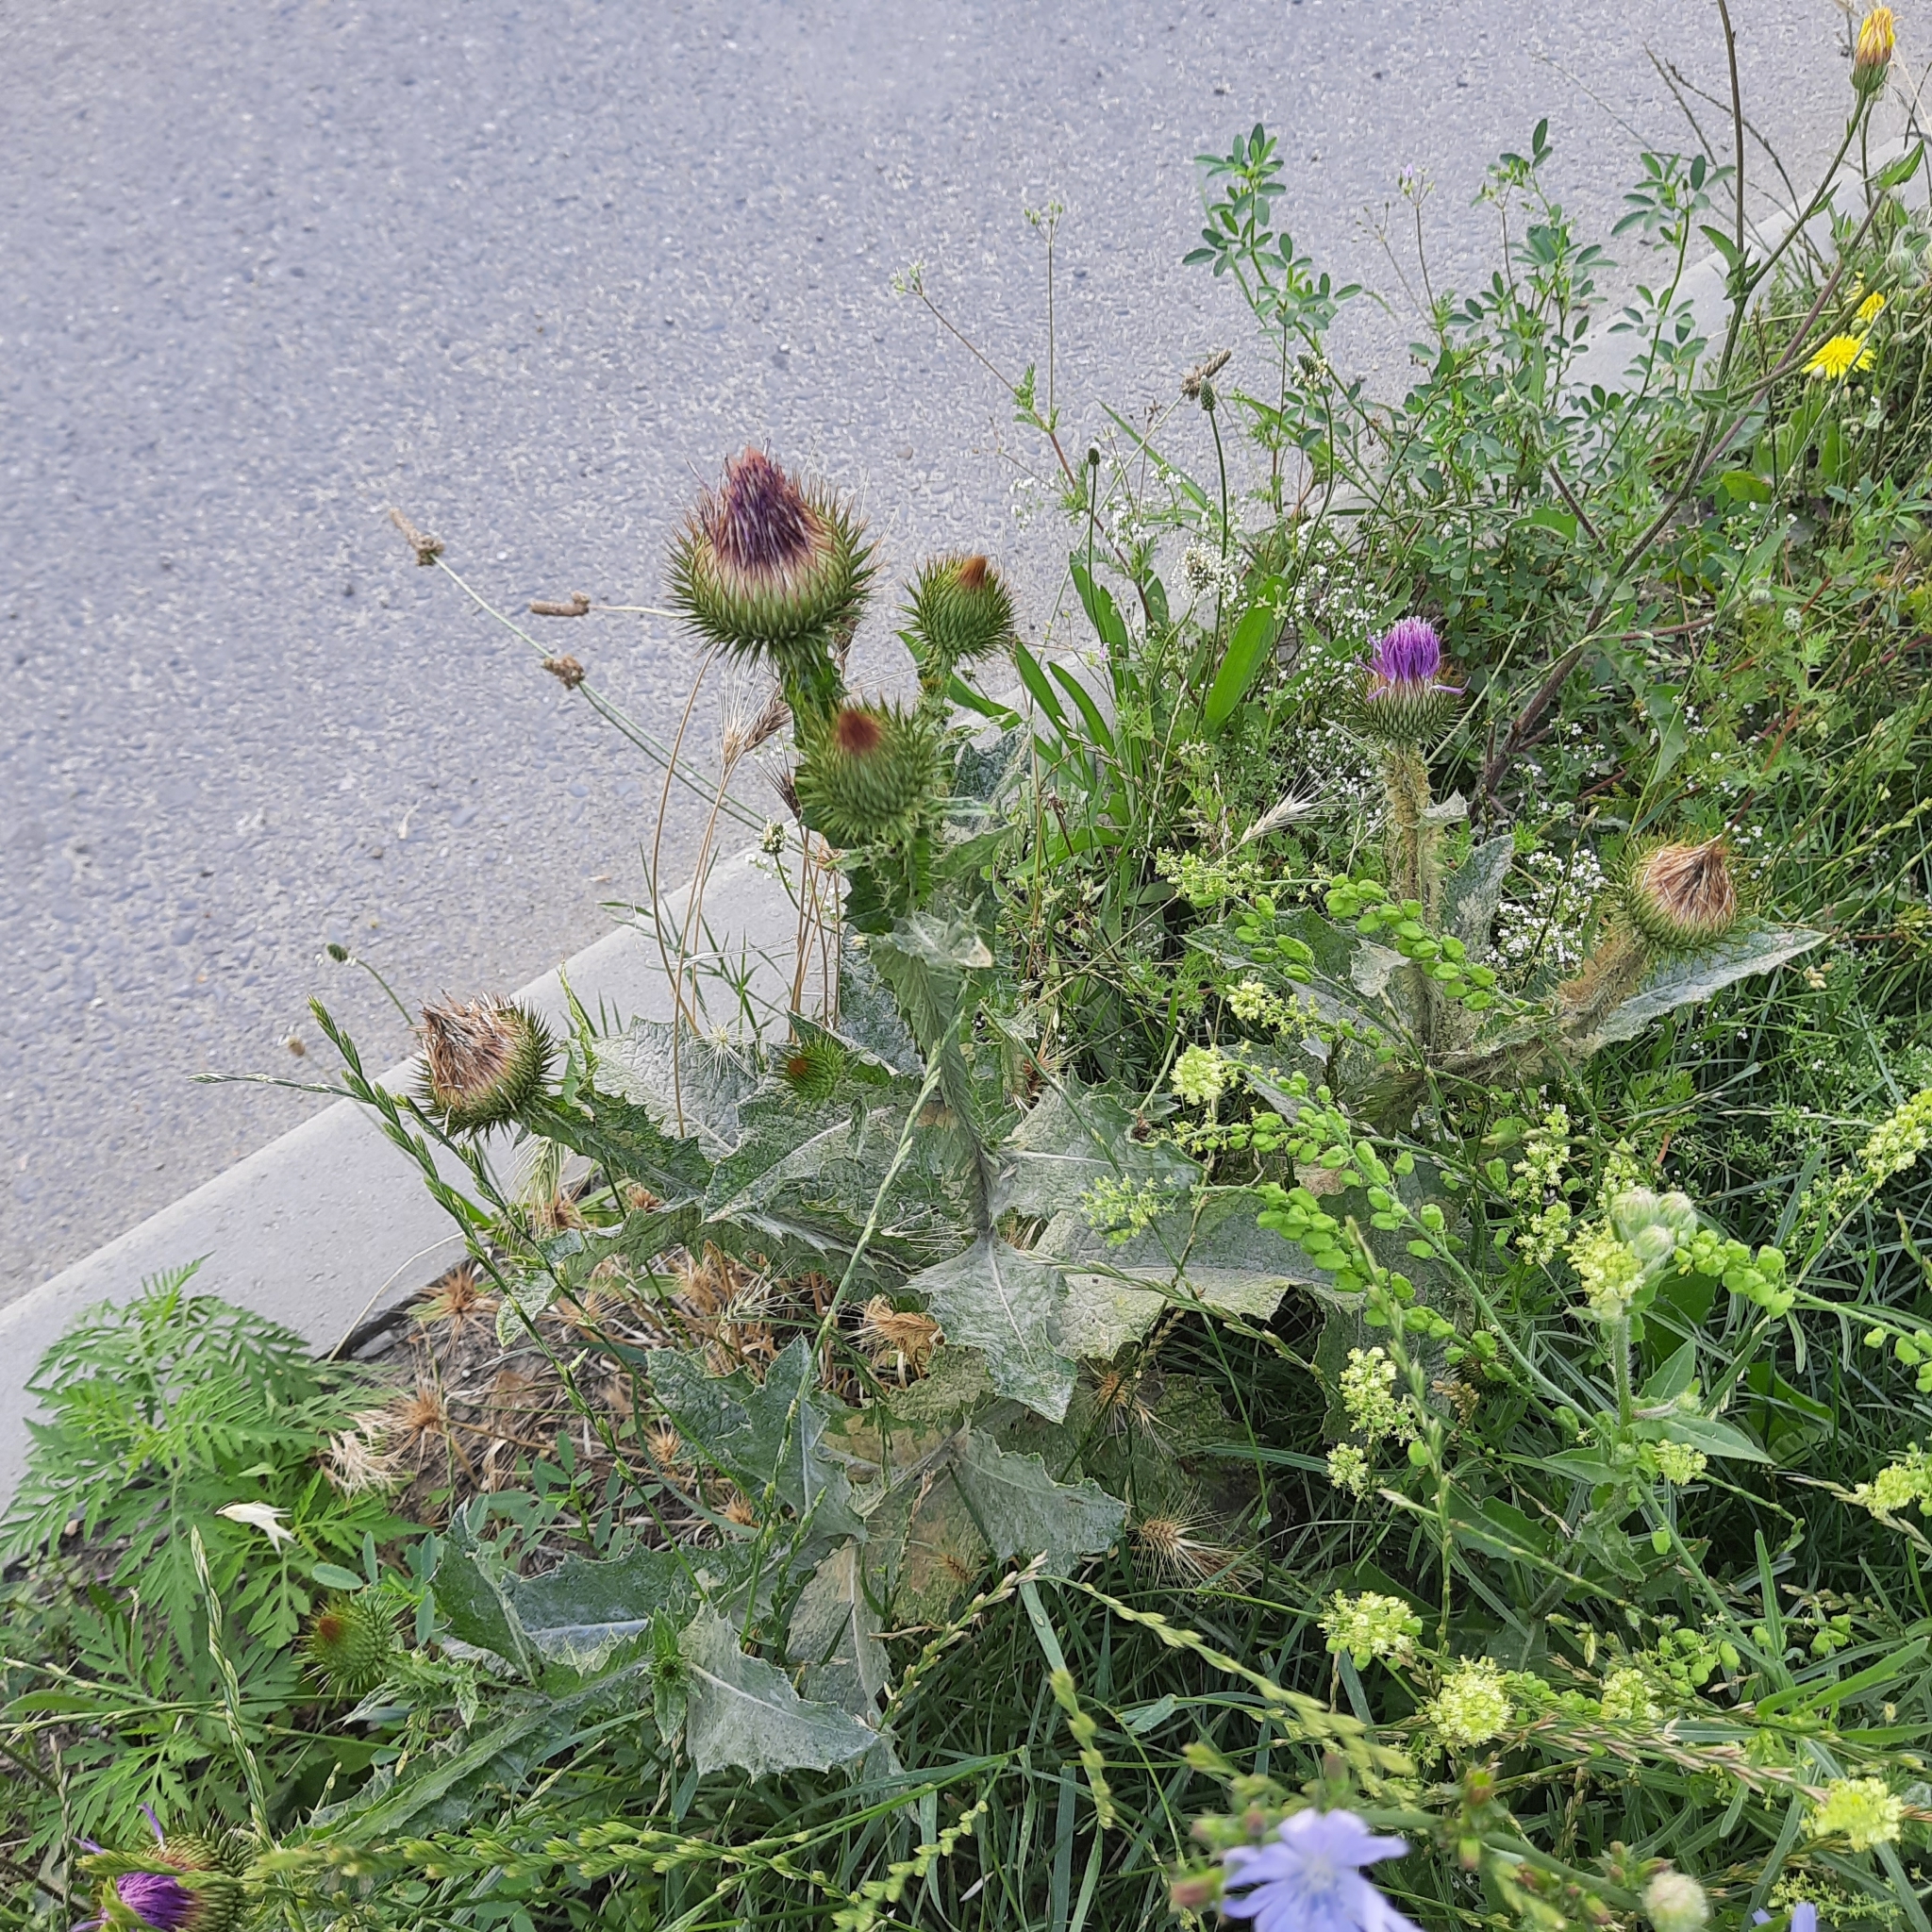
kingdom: Plantae
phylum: Tracheophyta
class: Magnoliopsida
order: Asterales
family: Asteraceae
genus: Onopordum
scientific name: Onopordum acanthium
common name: Scotch thistle
